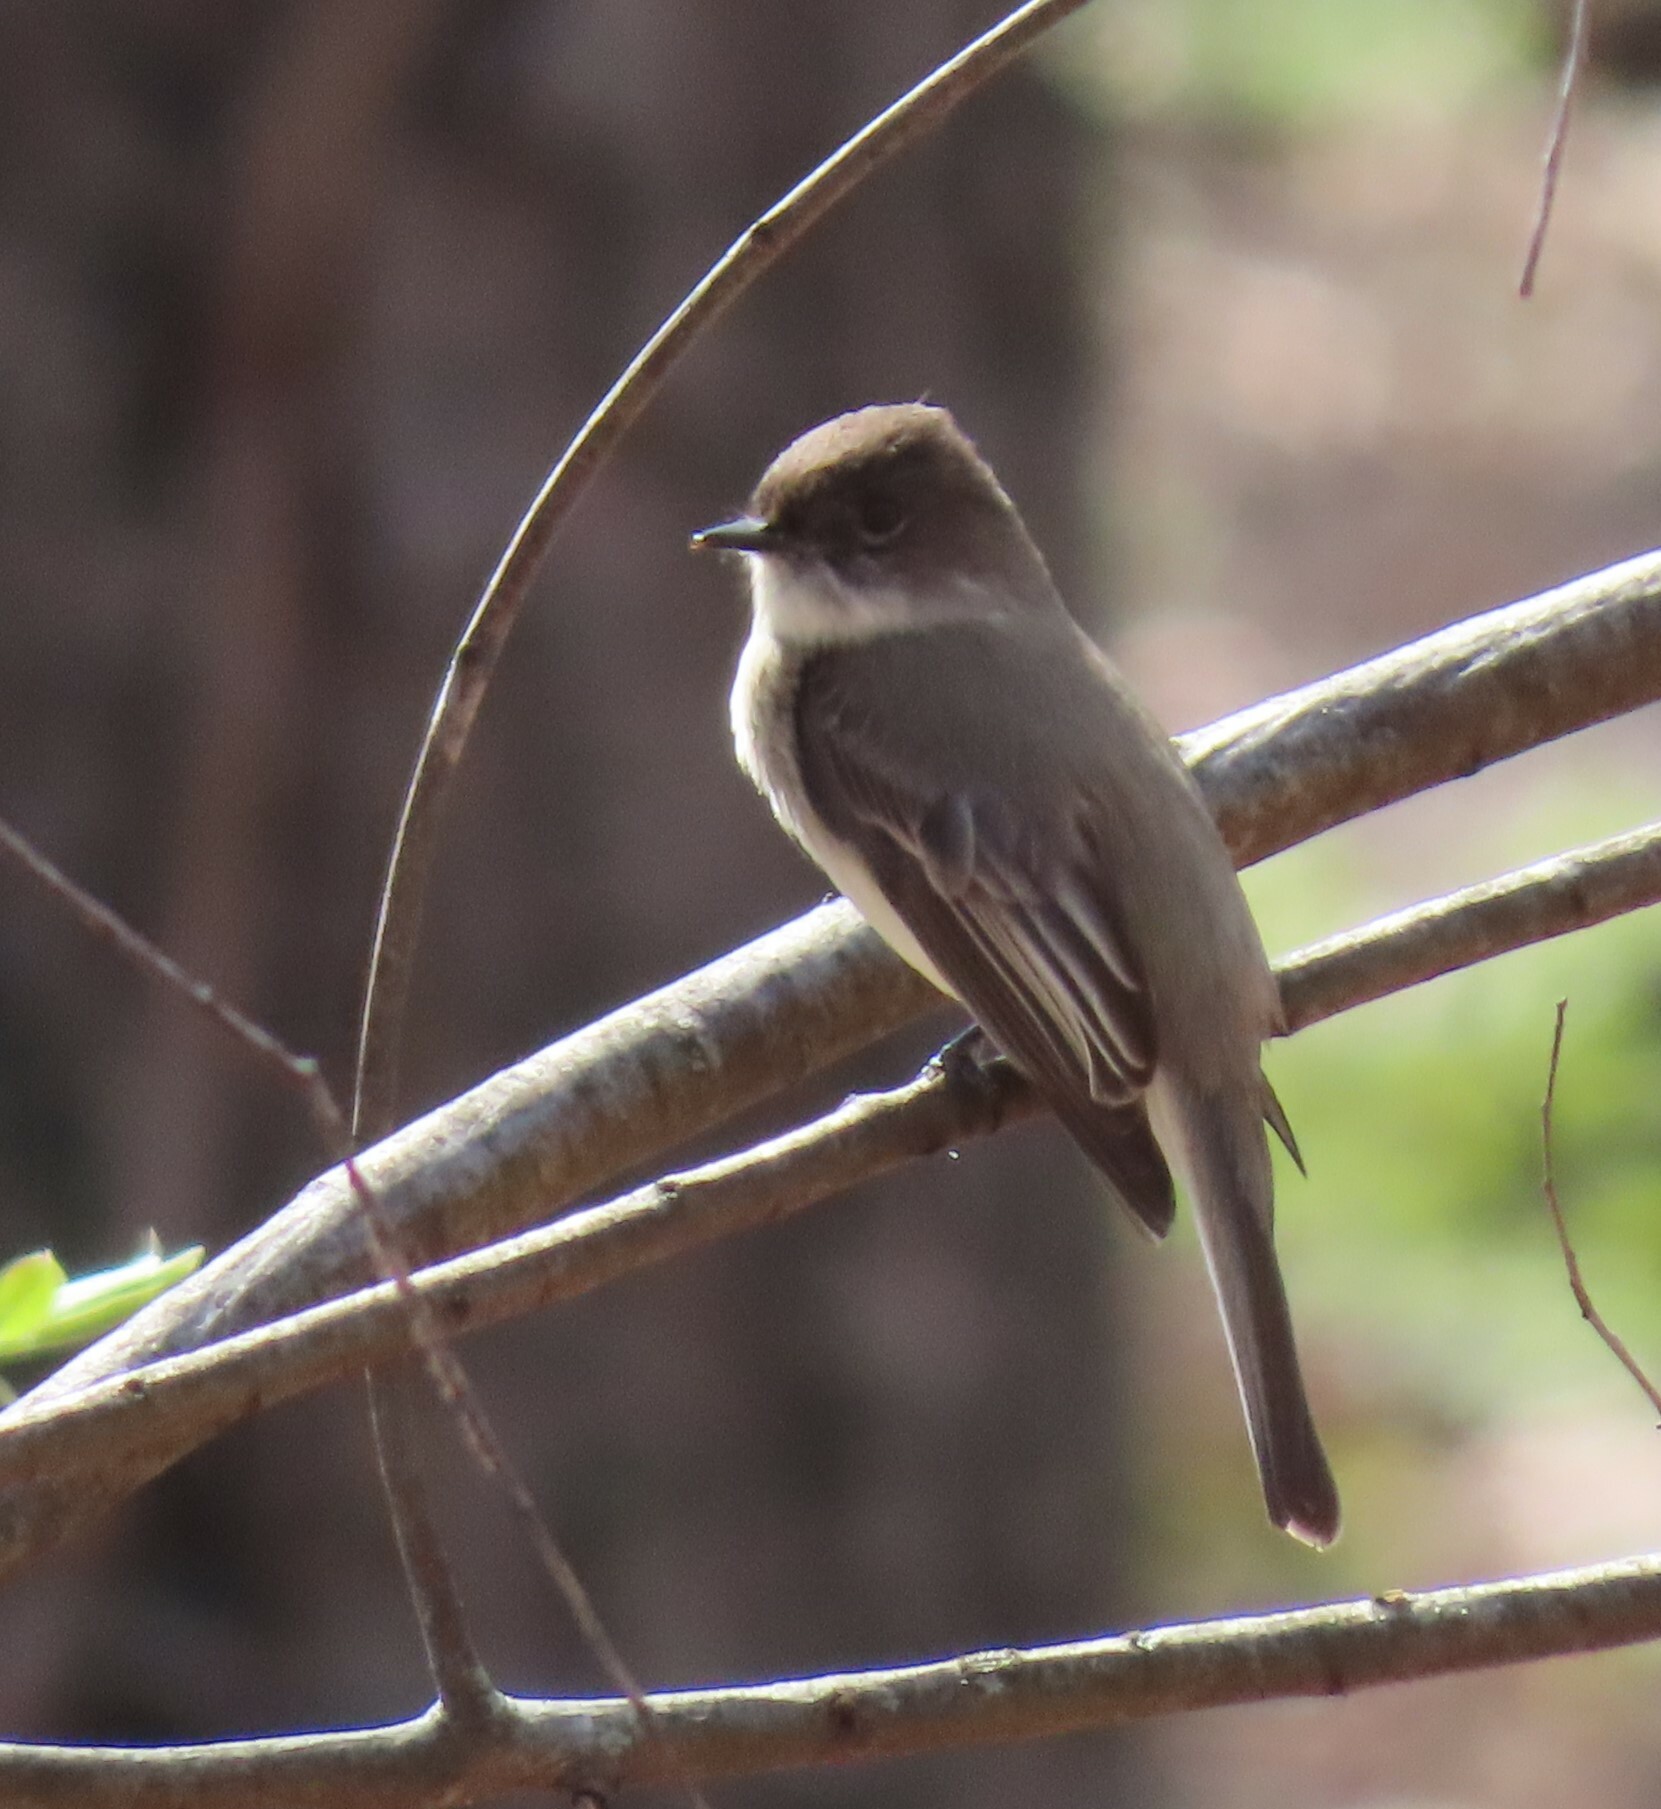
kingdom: Animalia
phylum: Chordata
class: Aves
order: Passeriformes
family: Tyrannidae
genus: Sayornis
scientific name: Sayornis phoebe
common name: Eastern phoebe
